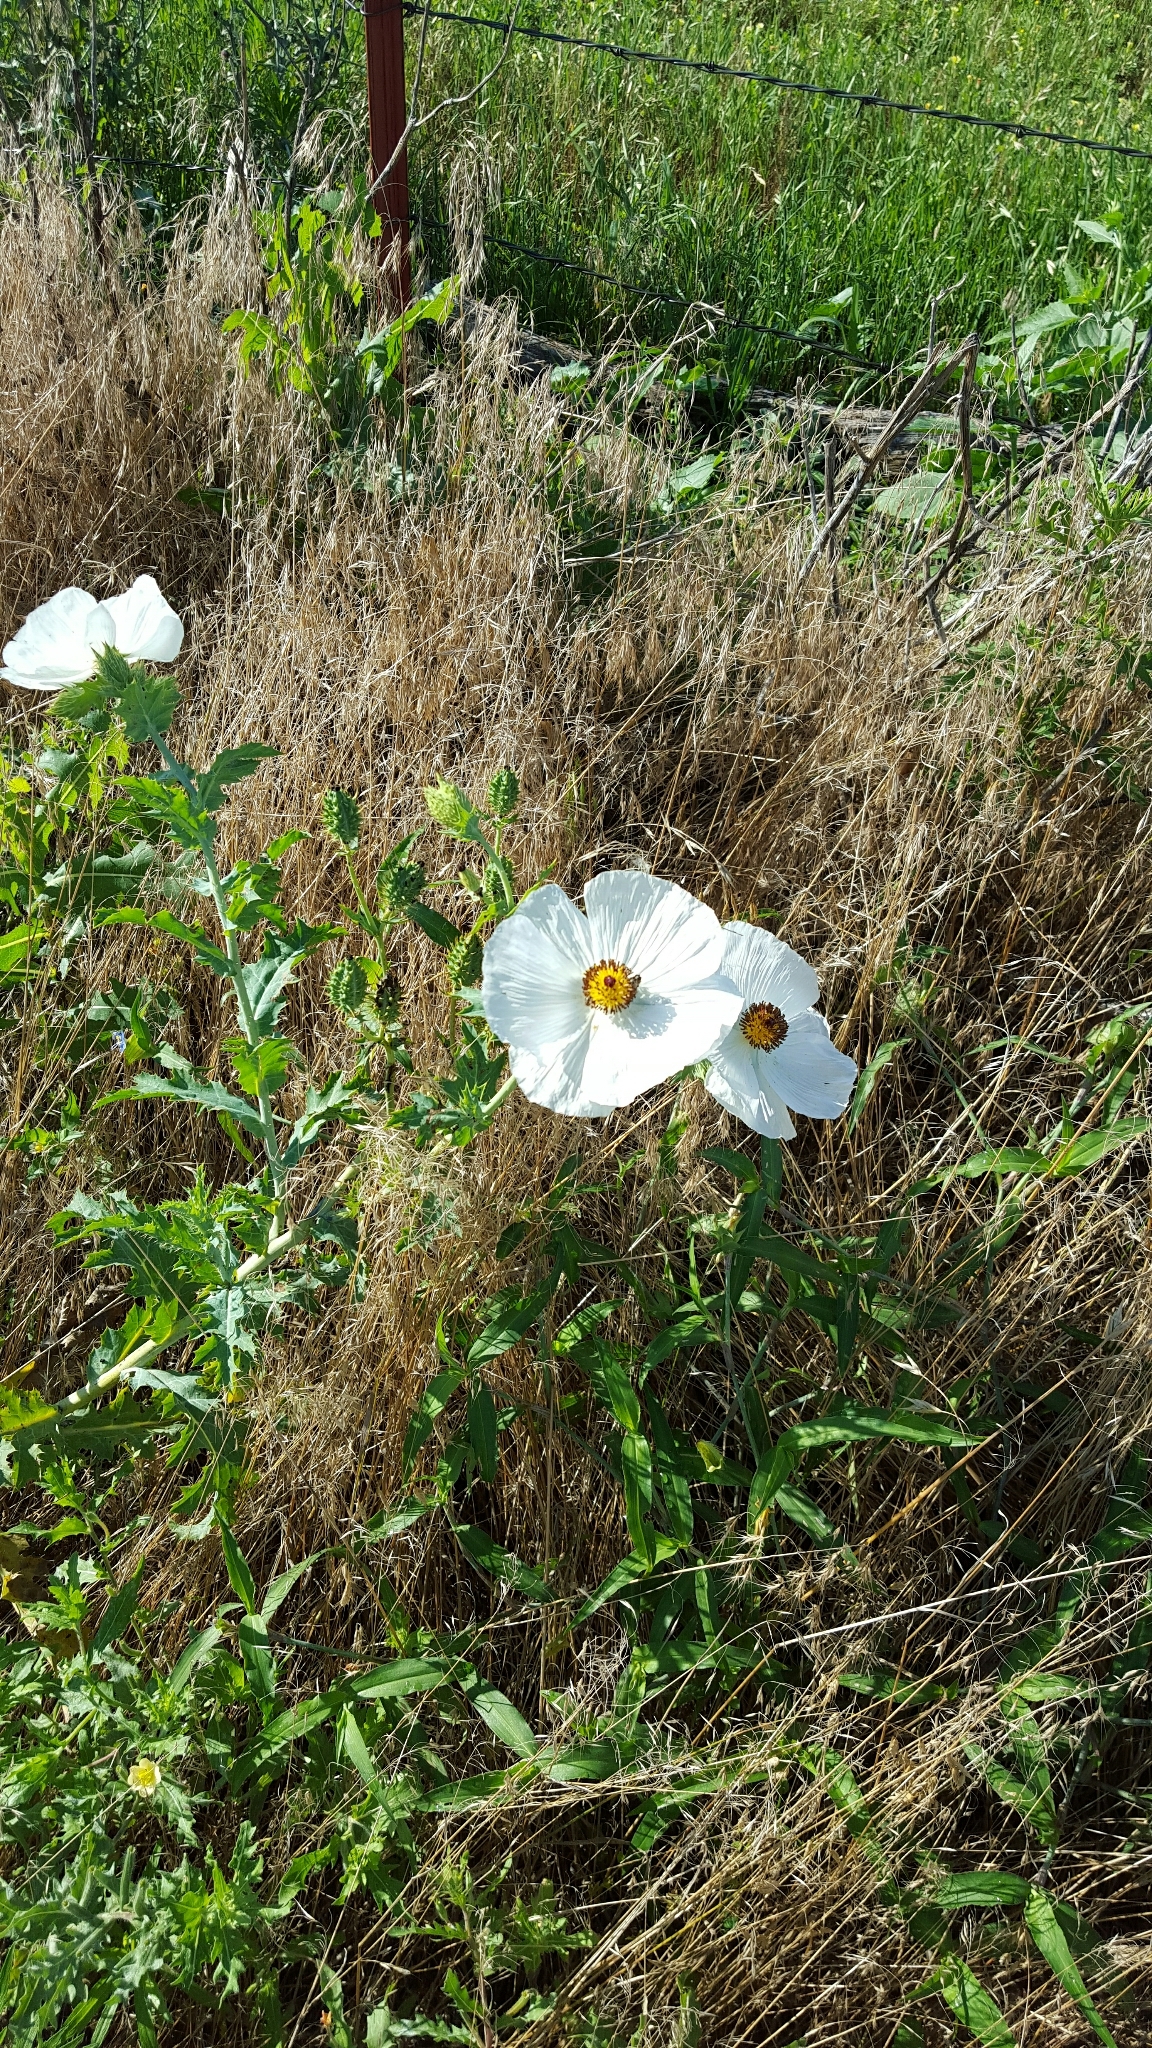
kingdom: Plantae
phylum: Tracheophyta
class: Magnoliopsida
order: Ranunculales
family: Papaveraceae
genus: Argemone
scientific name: Argemone albiflora
